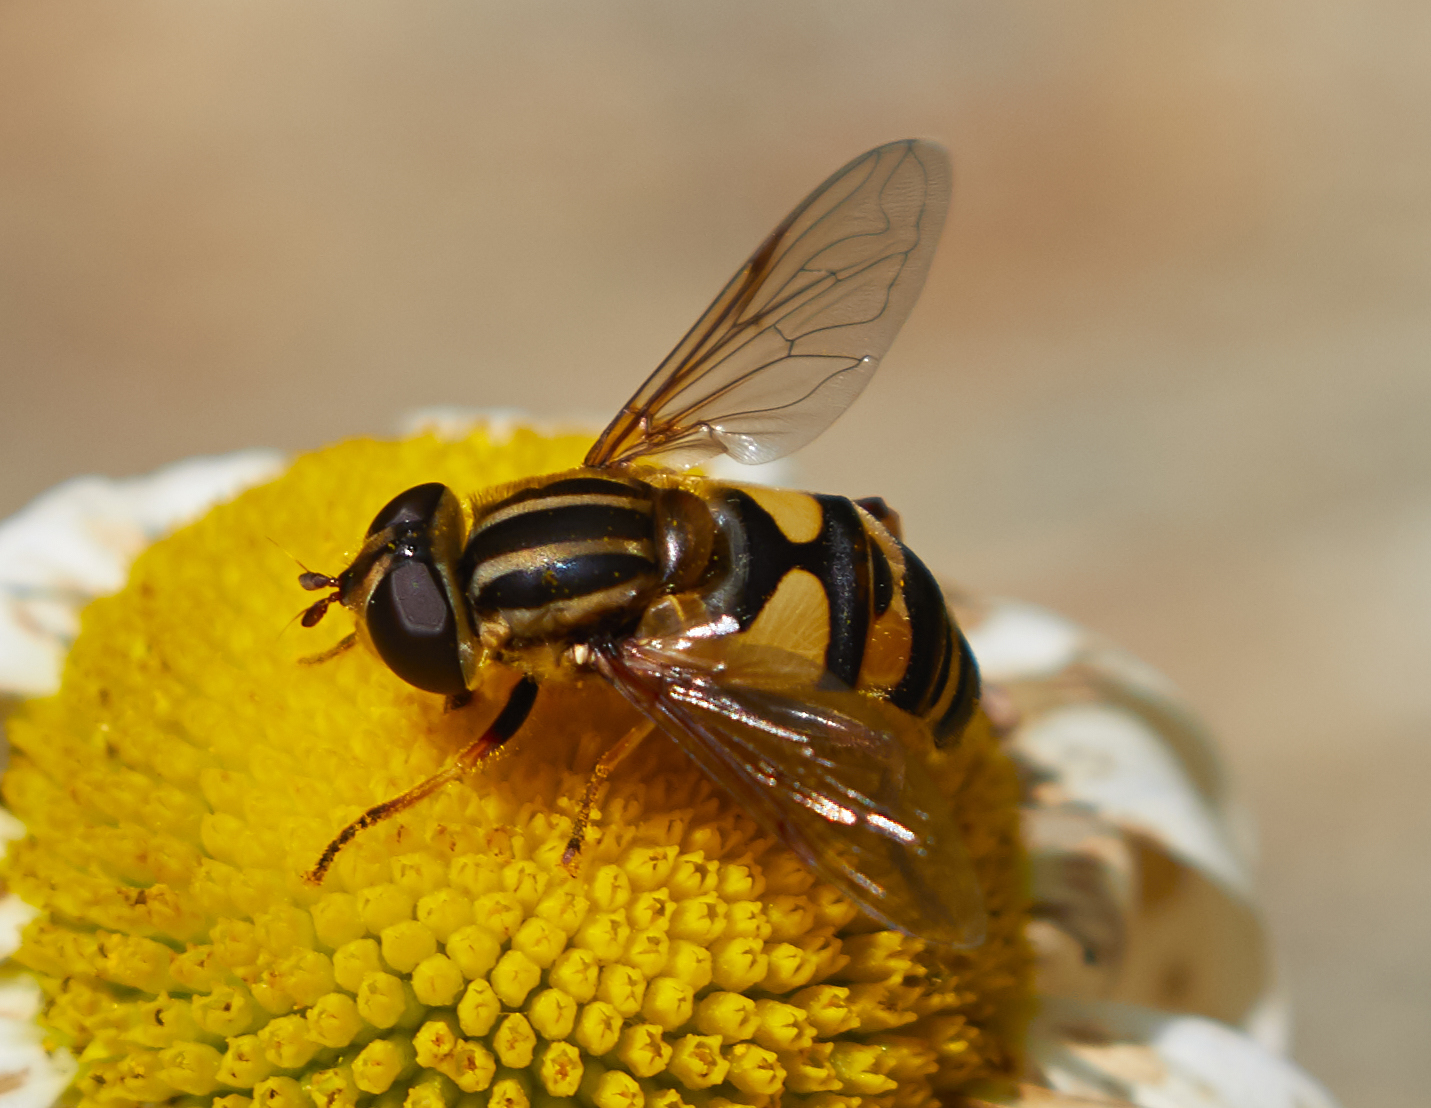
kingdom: Animalia
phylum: Arthropoda
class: Insecta
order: Diptera
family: Syrphidae
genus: Helophilus
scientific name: Helophilus fasciatus
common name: Narrow-headed marsh fly
